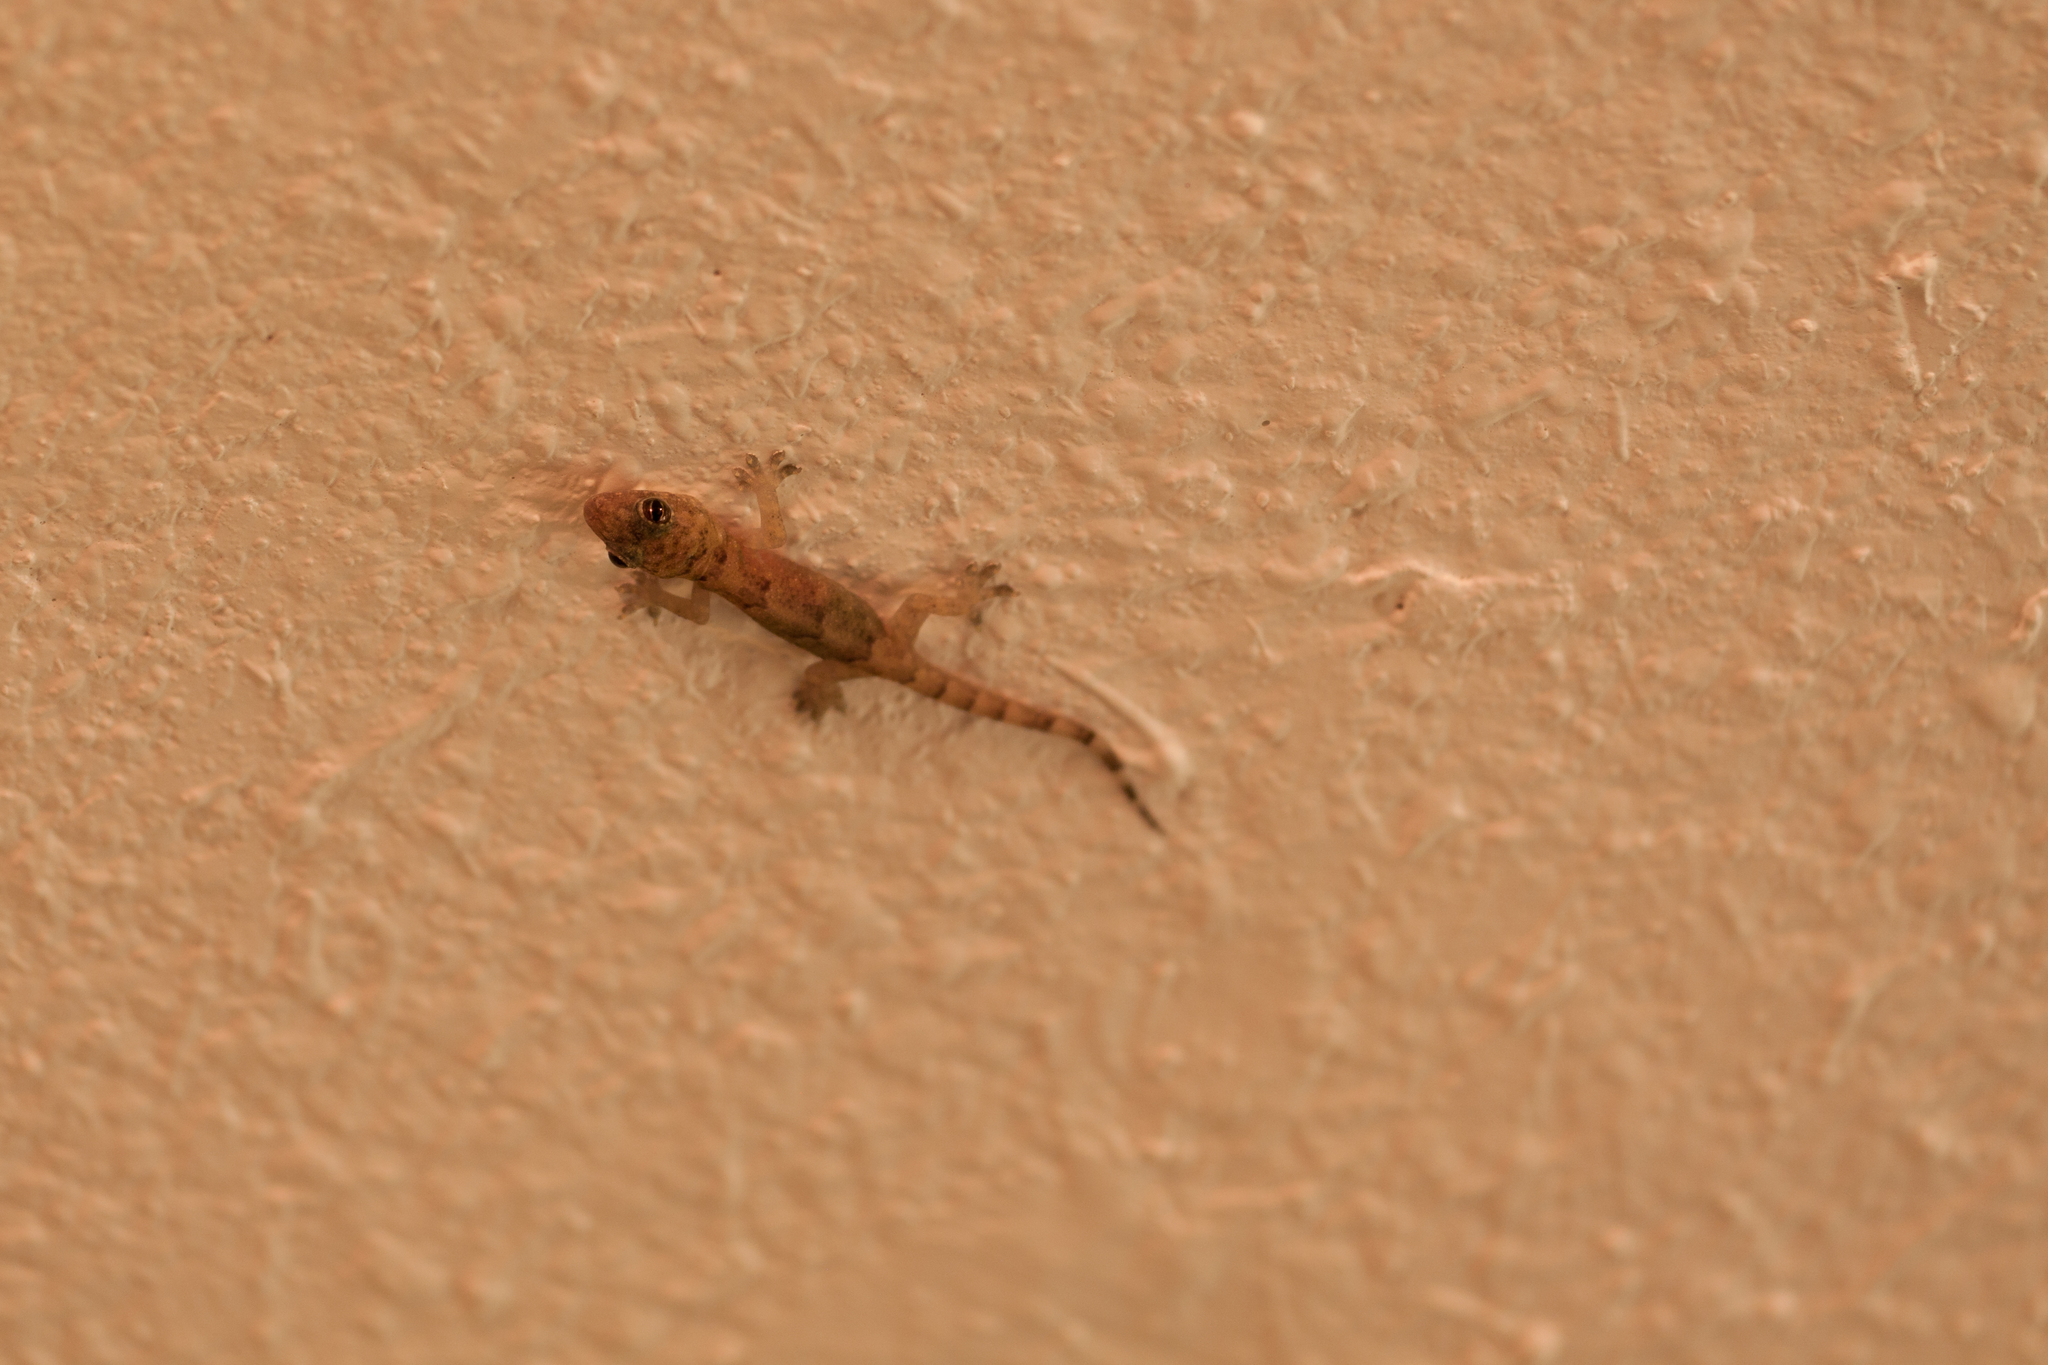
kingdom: Animalia
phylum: Chordata
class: Squamata
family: Gekkonidae
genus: Hemidactylus
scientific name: Hemidactylus mabouia
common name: House gecko
